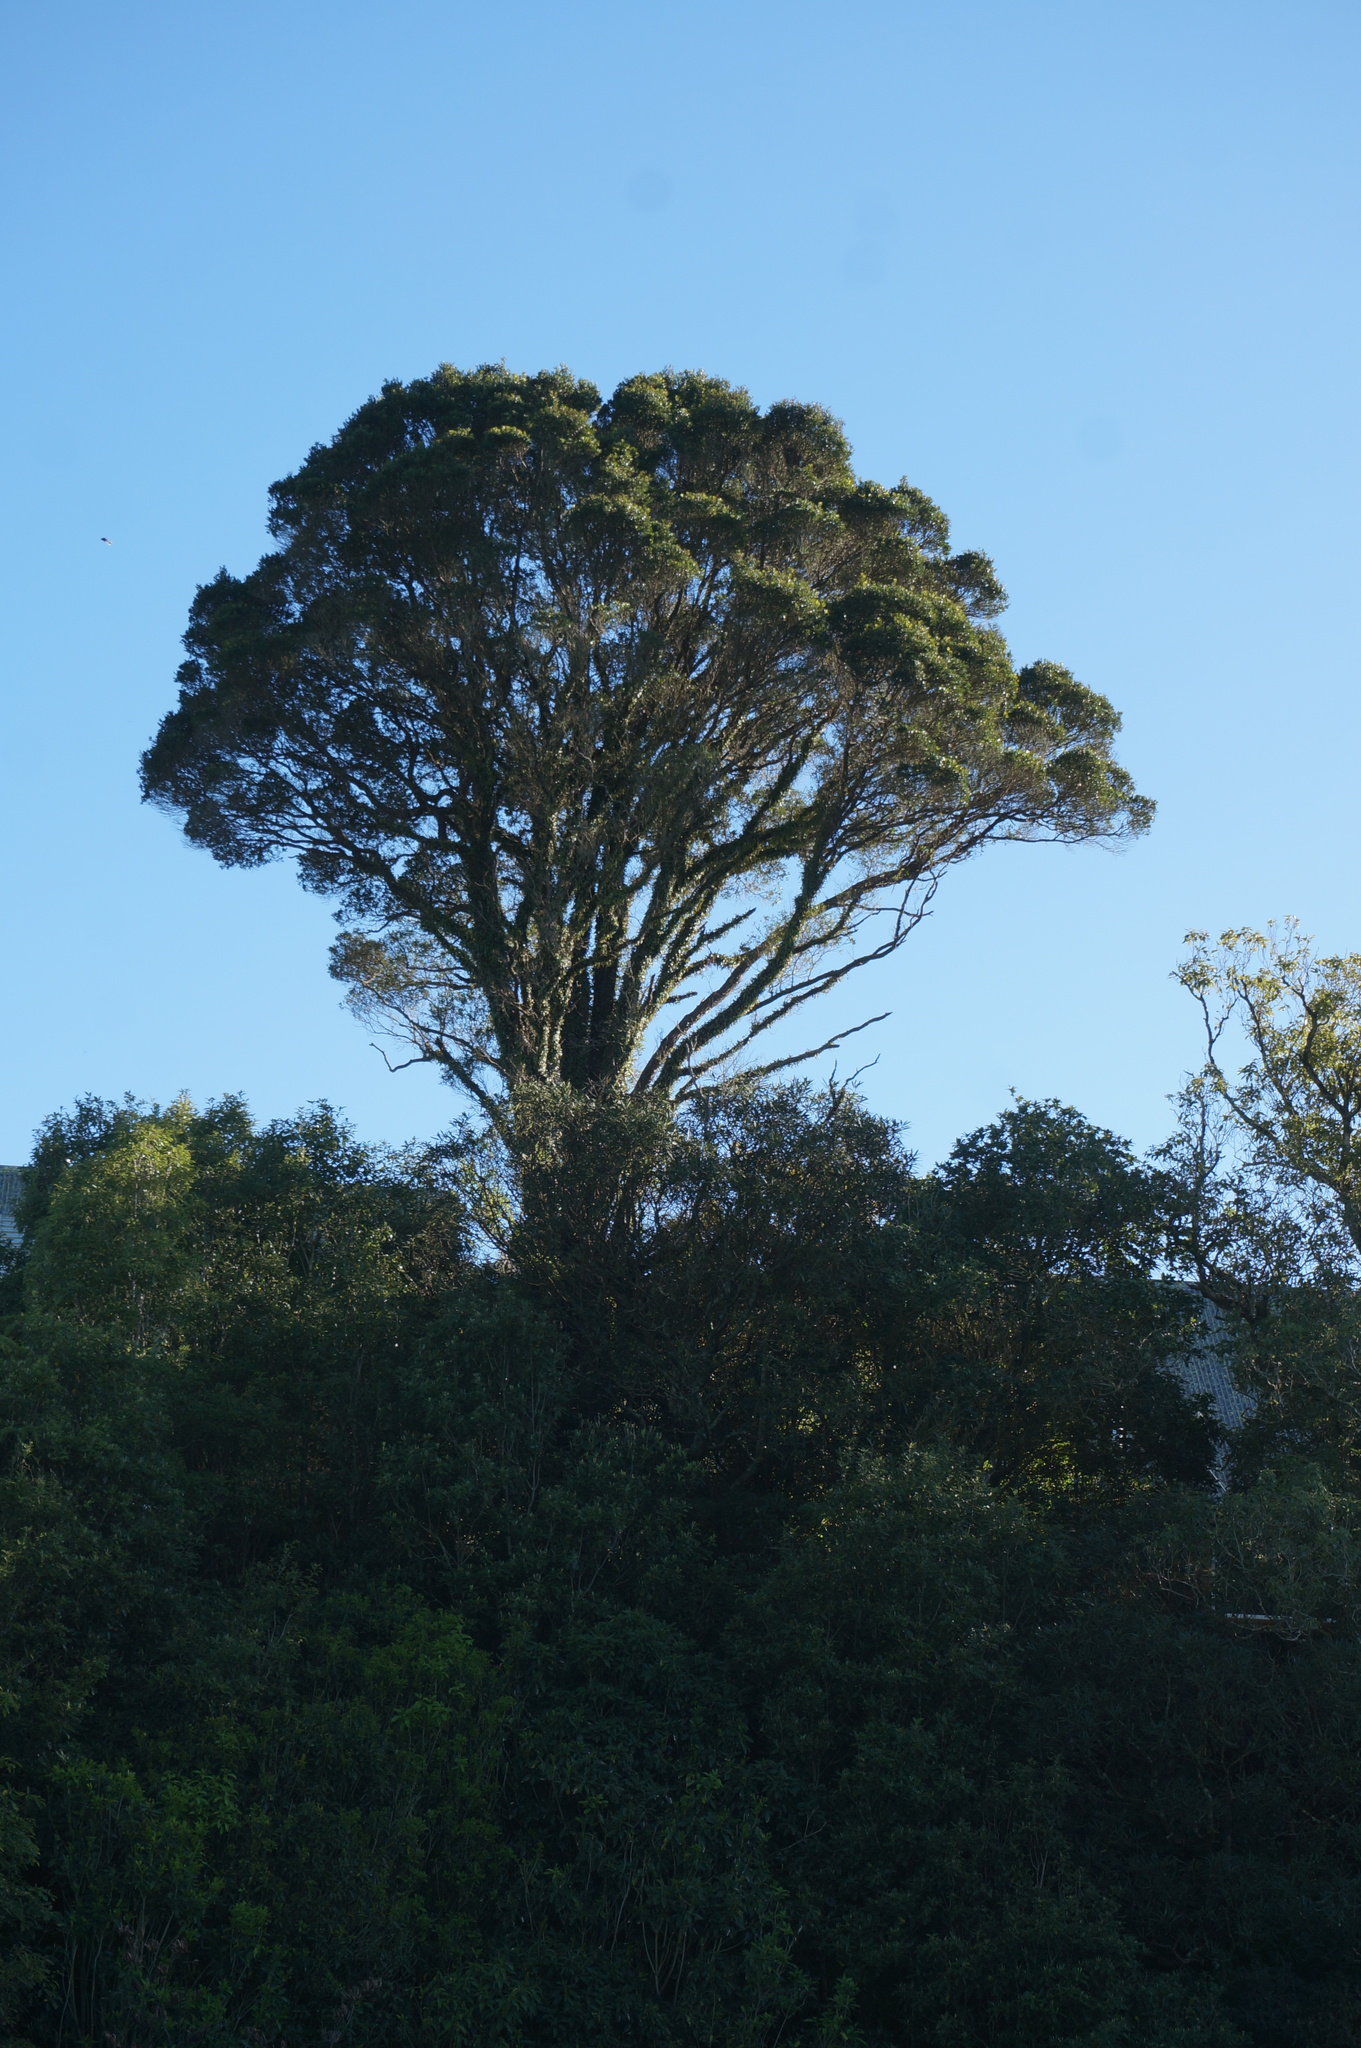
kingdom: Plantae
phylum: Tracheophyta
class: Magnoliopsida
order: Myrtales
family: Myrtaceae
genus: Metrosideros
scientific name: Metrosideros robusta
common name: Northern rata
